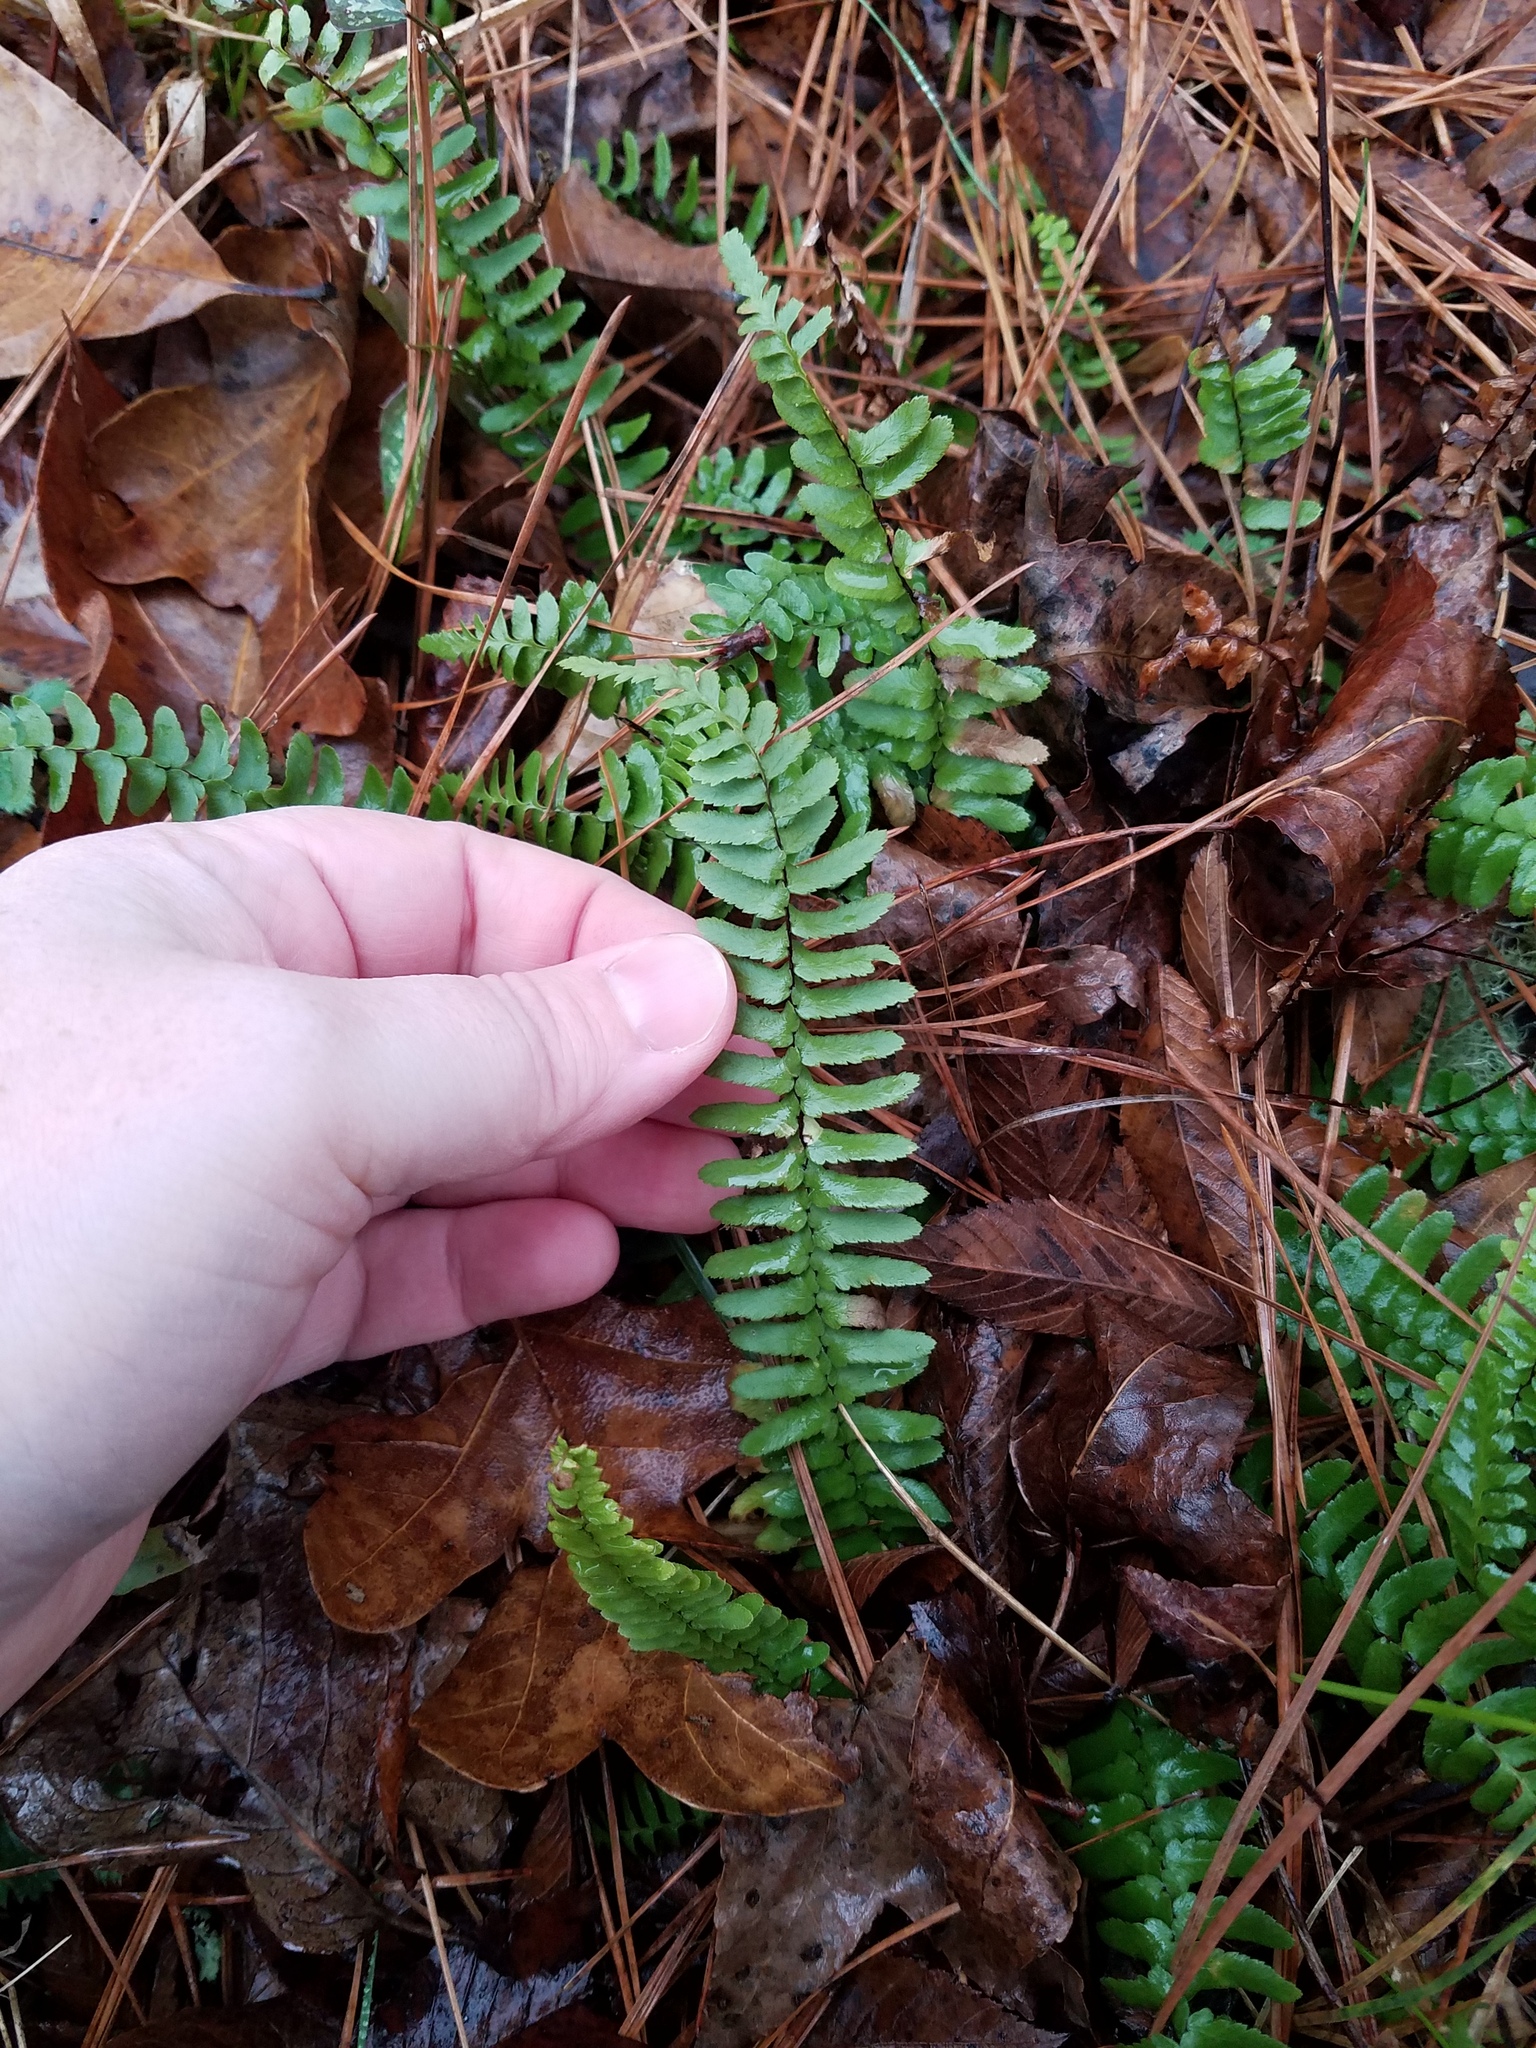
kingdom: Plantae
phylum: Tracheophyta
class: Polypodiopsida
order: Polypodiales
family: Aspleniaceae
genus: Asplenium
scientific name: Asplenium platyneuron
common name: Ebony spleenwort
